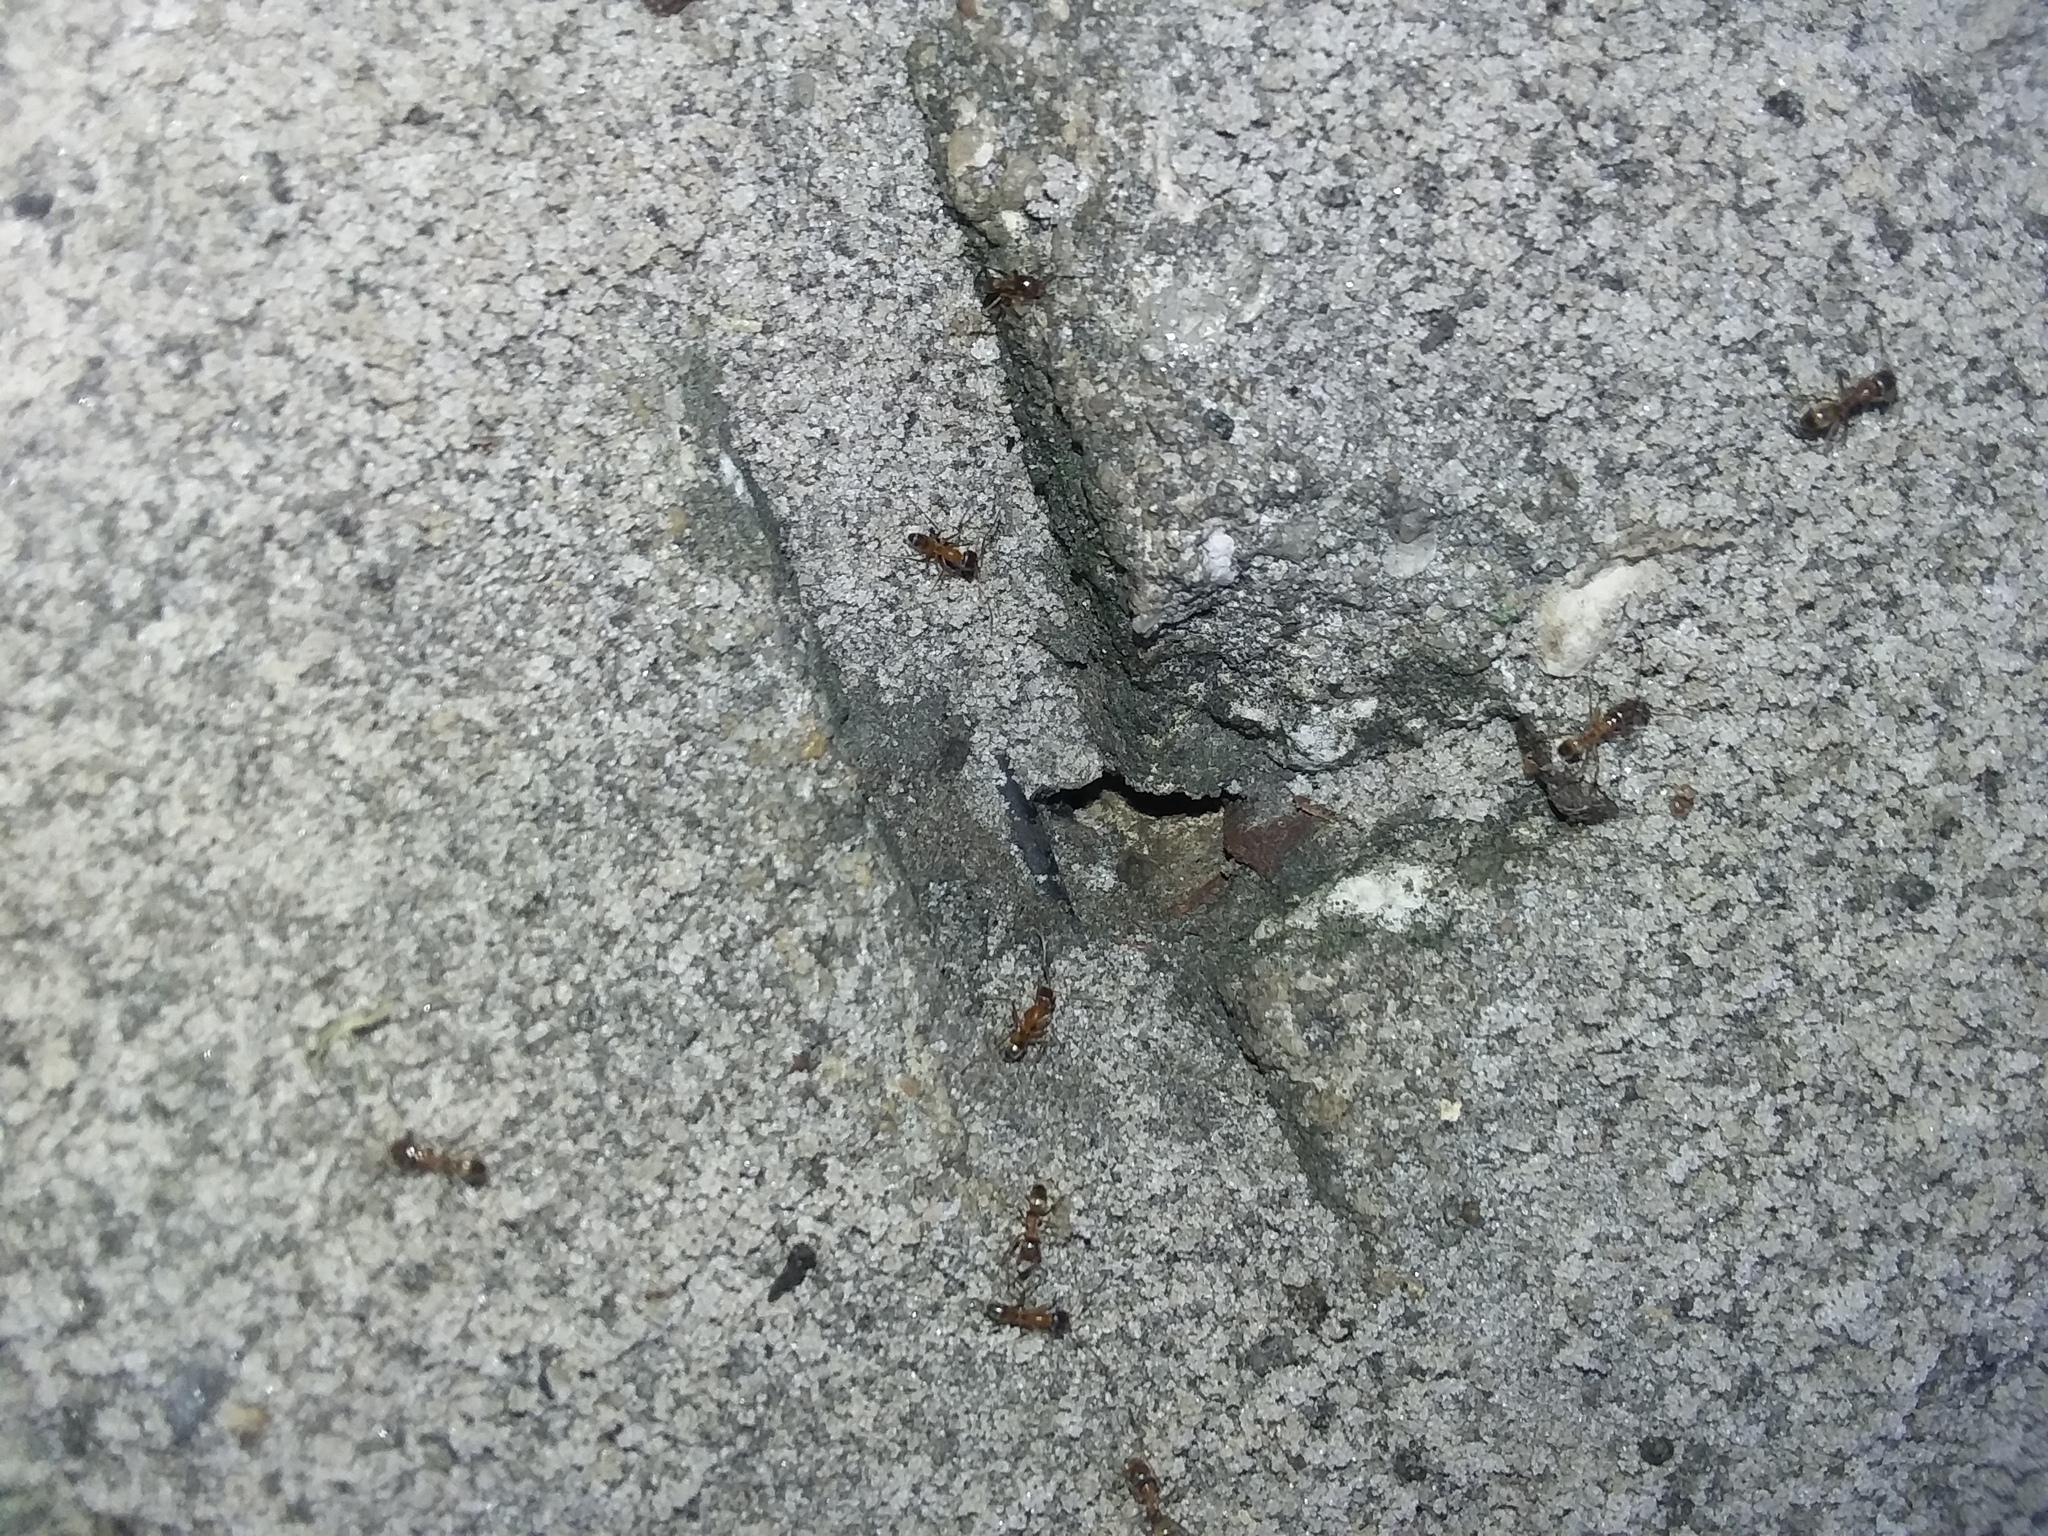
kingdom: Animalia
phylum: Arthropoda
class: Insecta
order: Hymenoptera
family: Formicidae
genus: Dorymyrmex
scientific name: Dorymyrmex bureni
